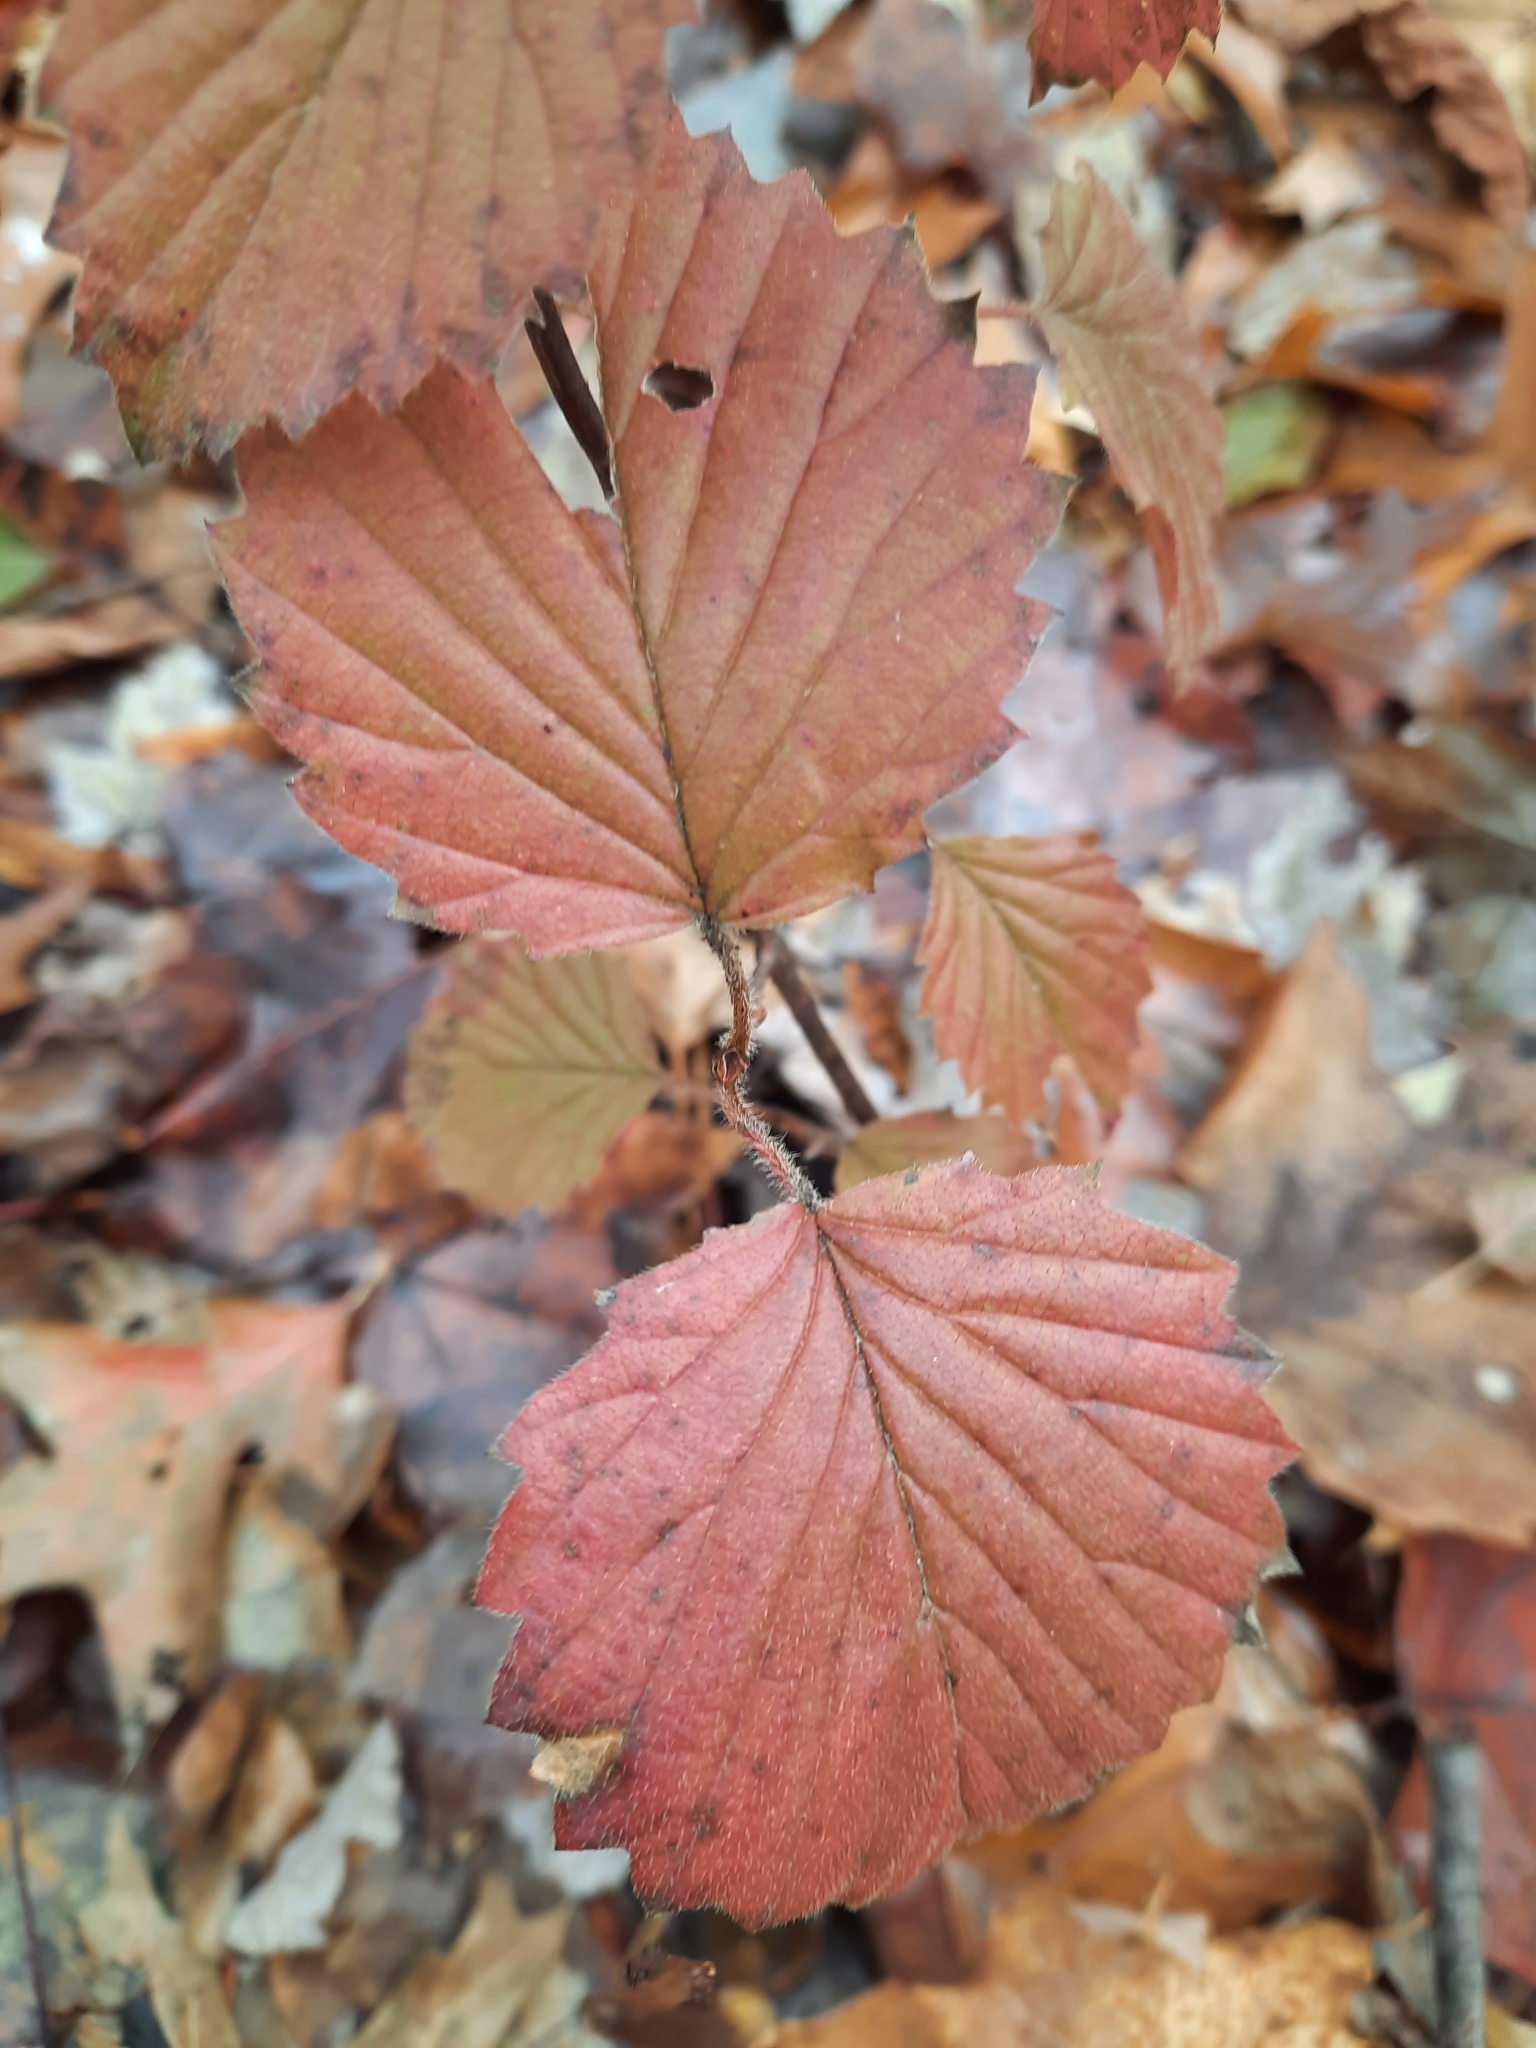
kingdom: Plantae
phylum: Tracheophyta
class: Magnoliopsida
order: Dipsacales
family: Viburnaceae
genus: Viburnum
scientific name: Viburnum acerifolium
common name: Dockmackie
